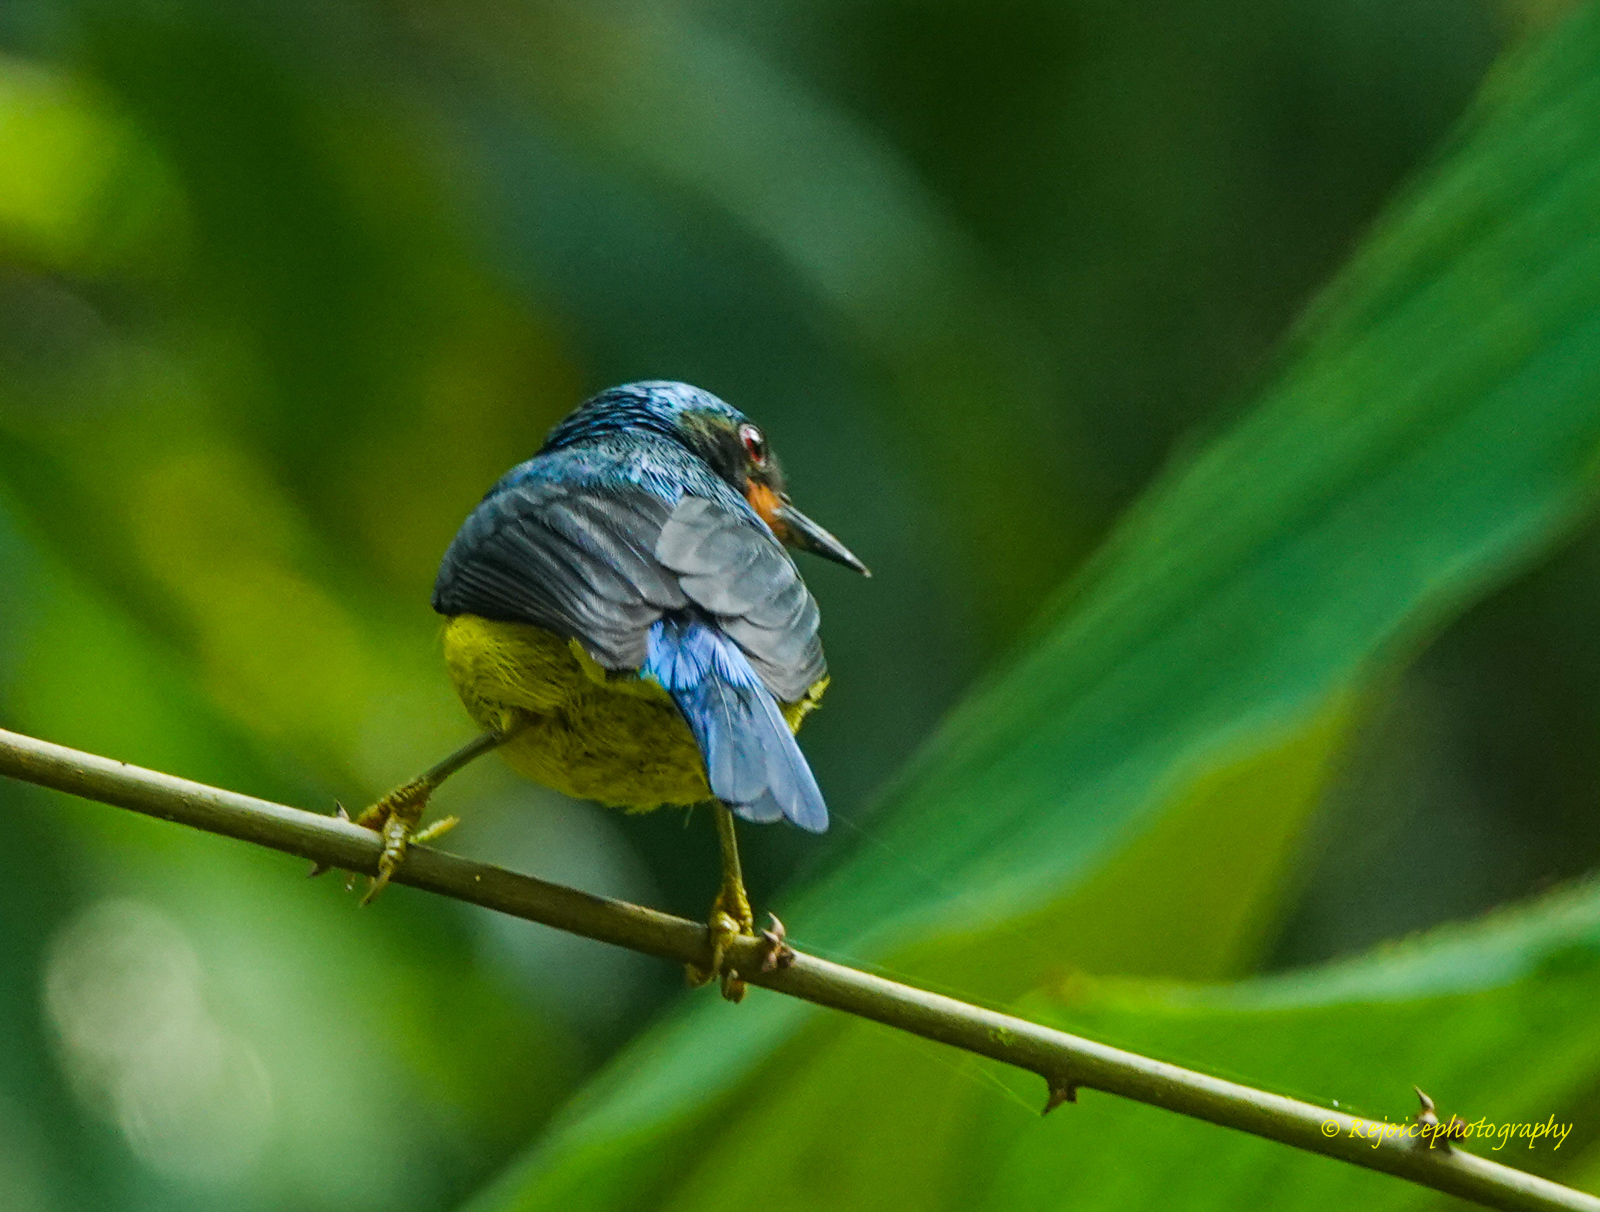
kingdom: Animalia
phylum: Chordata
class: Aves
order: Passeriformes
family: Nectariniidae
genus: Chalcoparia
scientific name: Chalcoparia singalensis
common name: Ruby-cheeked sunbird
